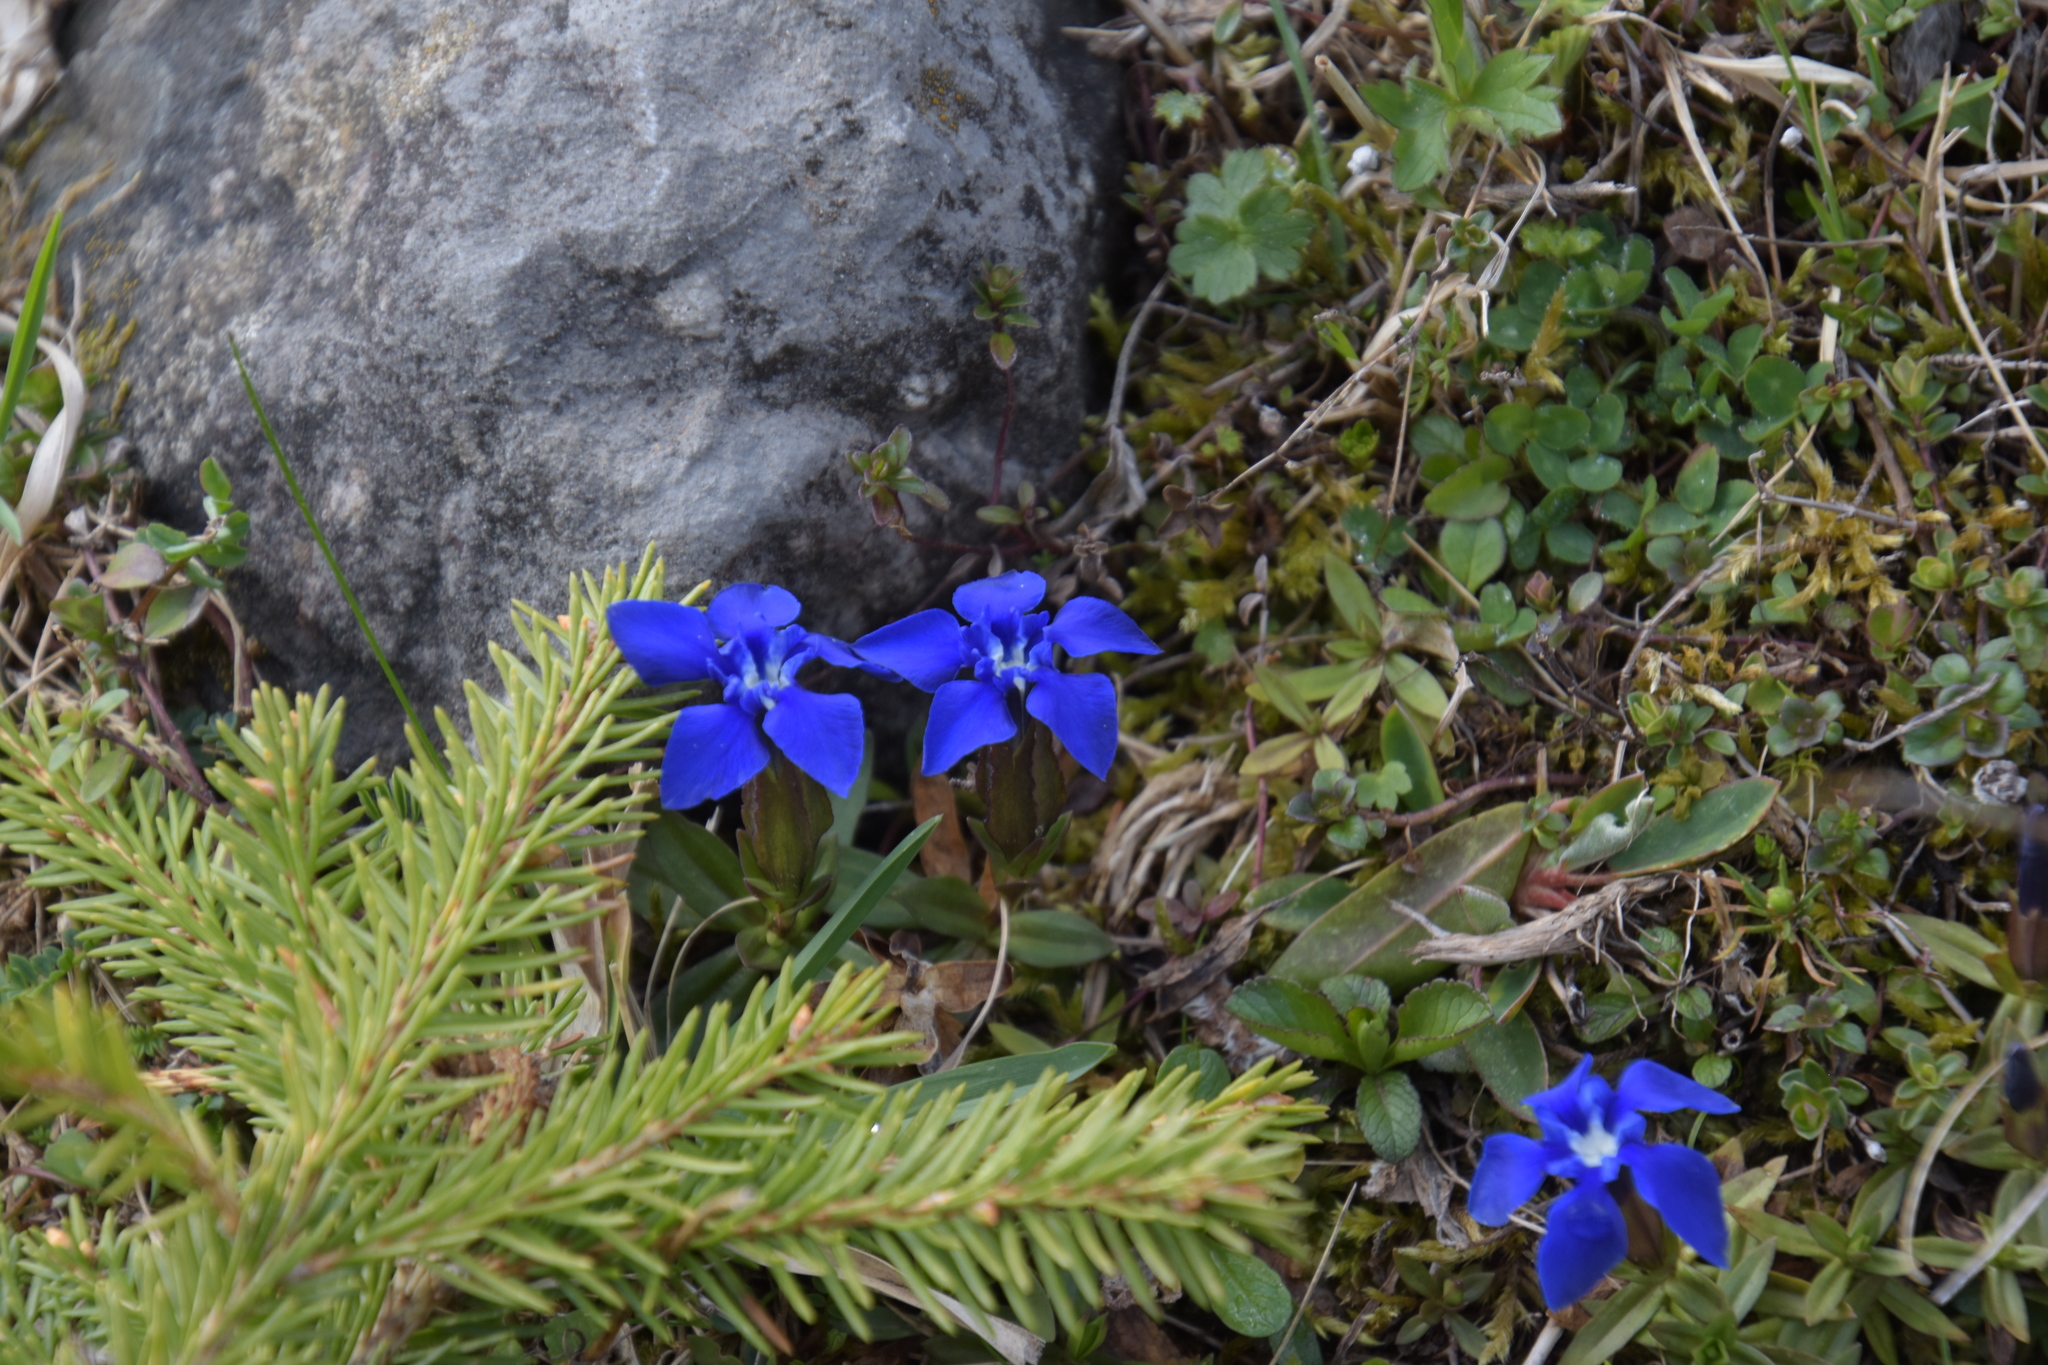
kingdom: Plantae
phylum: Tracheophyta
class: Magnoliopsida
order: Gentianales
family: Gentianaceae
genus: Gentiana
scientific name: Gentiana verna
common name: Spring gentian
